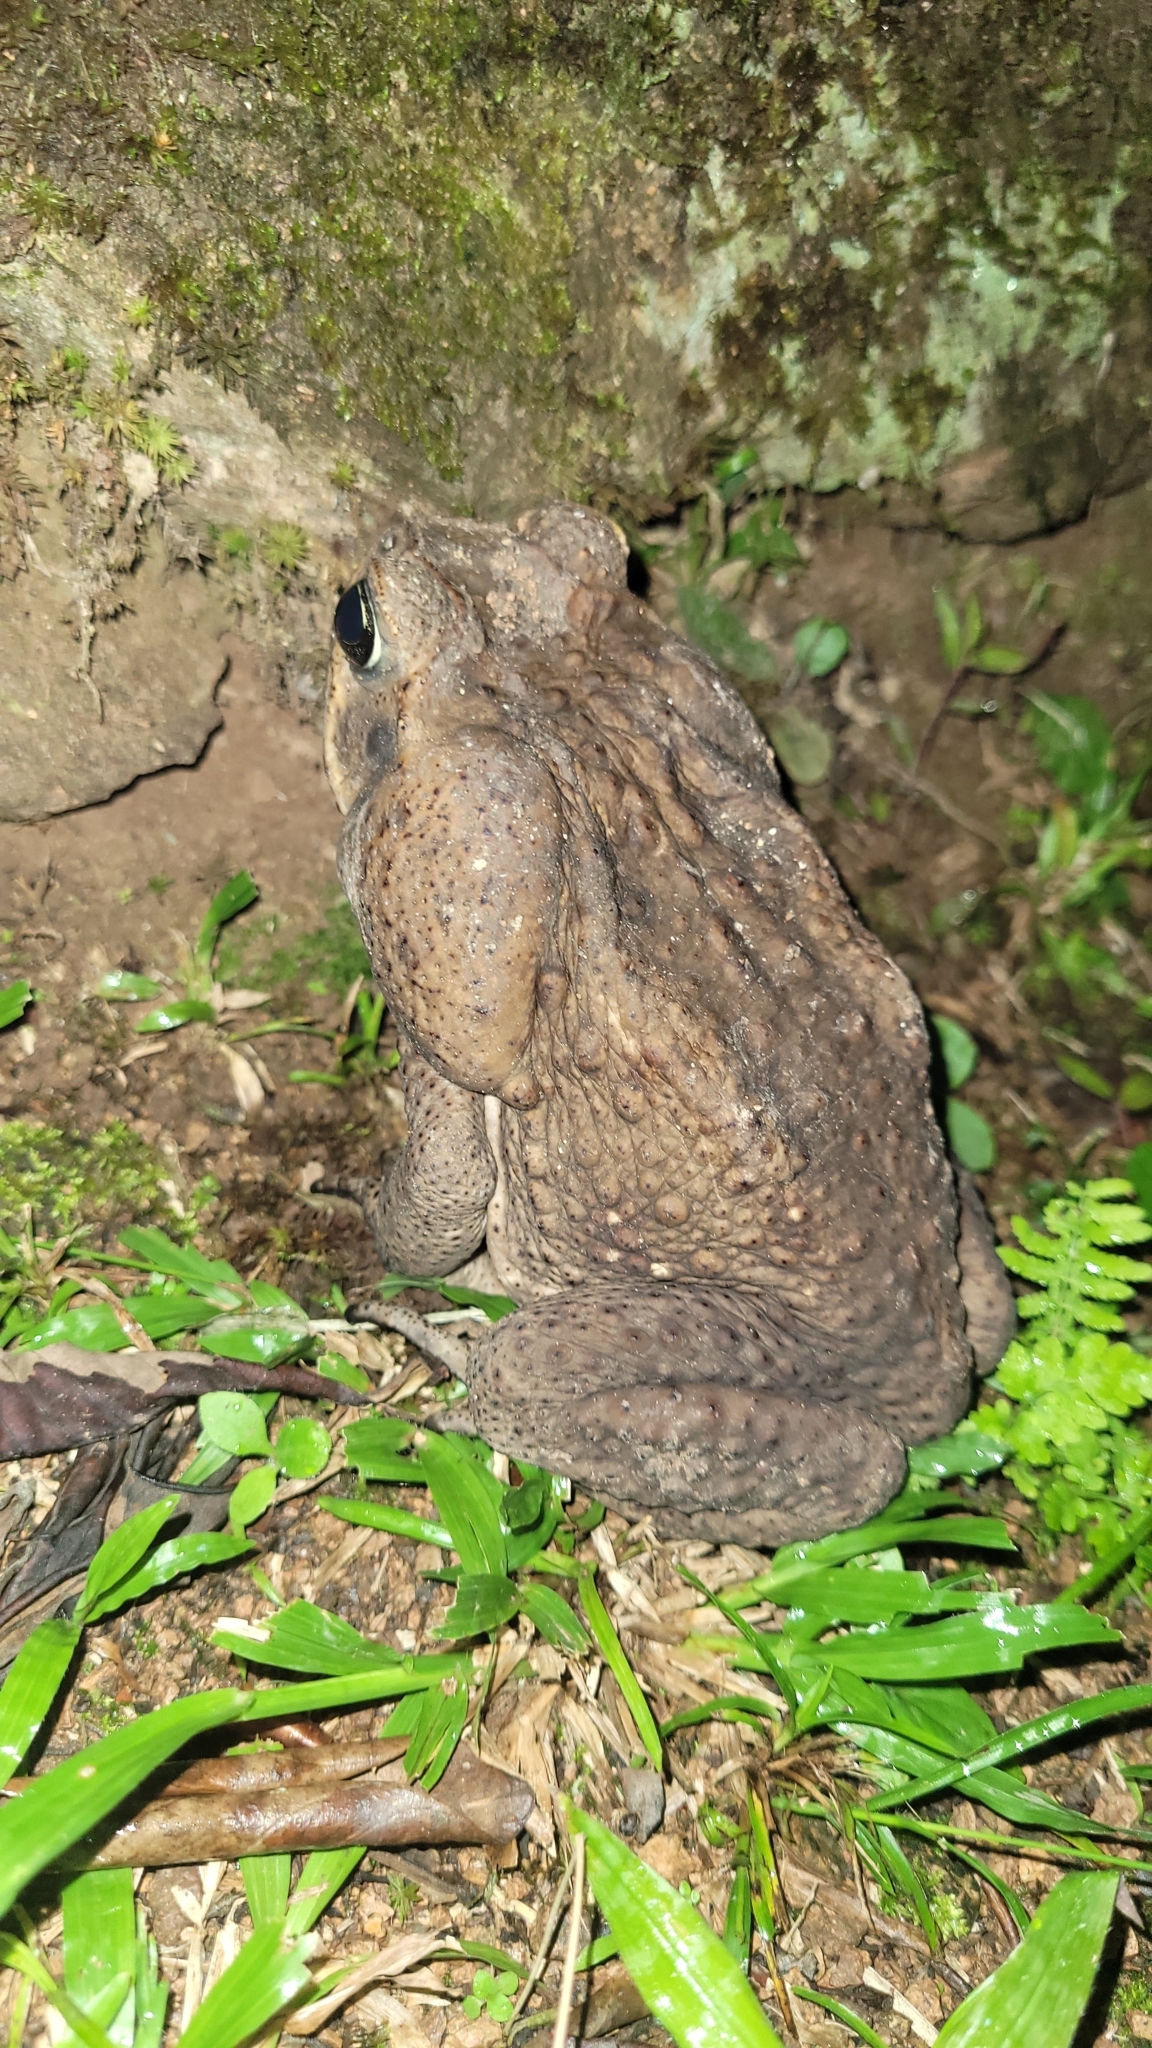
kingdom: Animalia
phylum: Chordata
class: Amphibia
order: Anura
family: Bufonidae
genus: Rhinella
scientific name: Rhinella horribilis
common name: Mesoamerican cane toad
